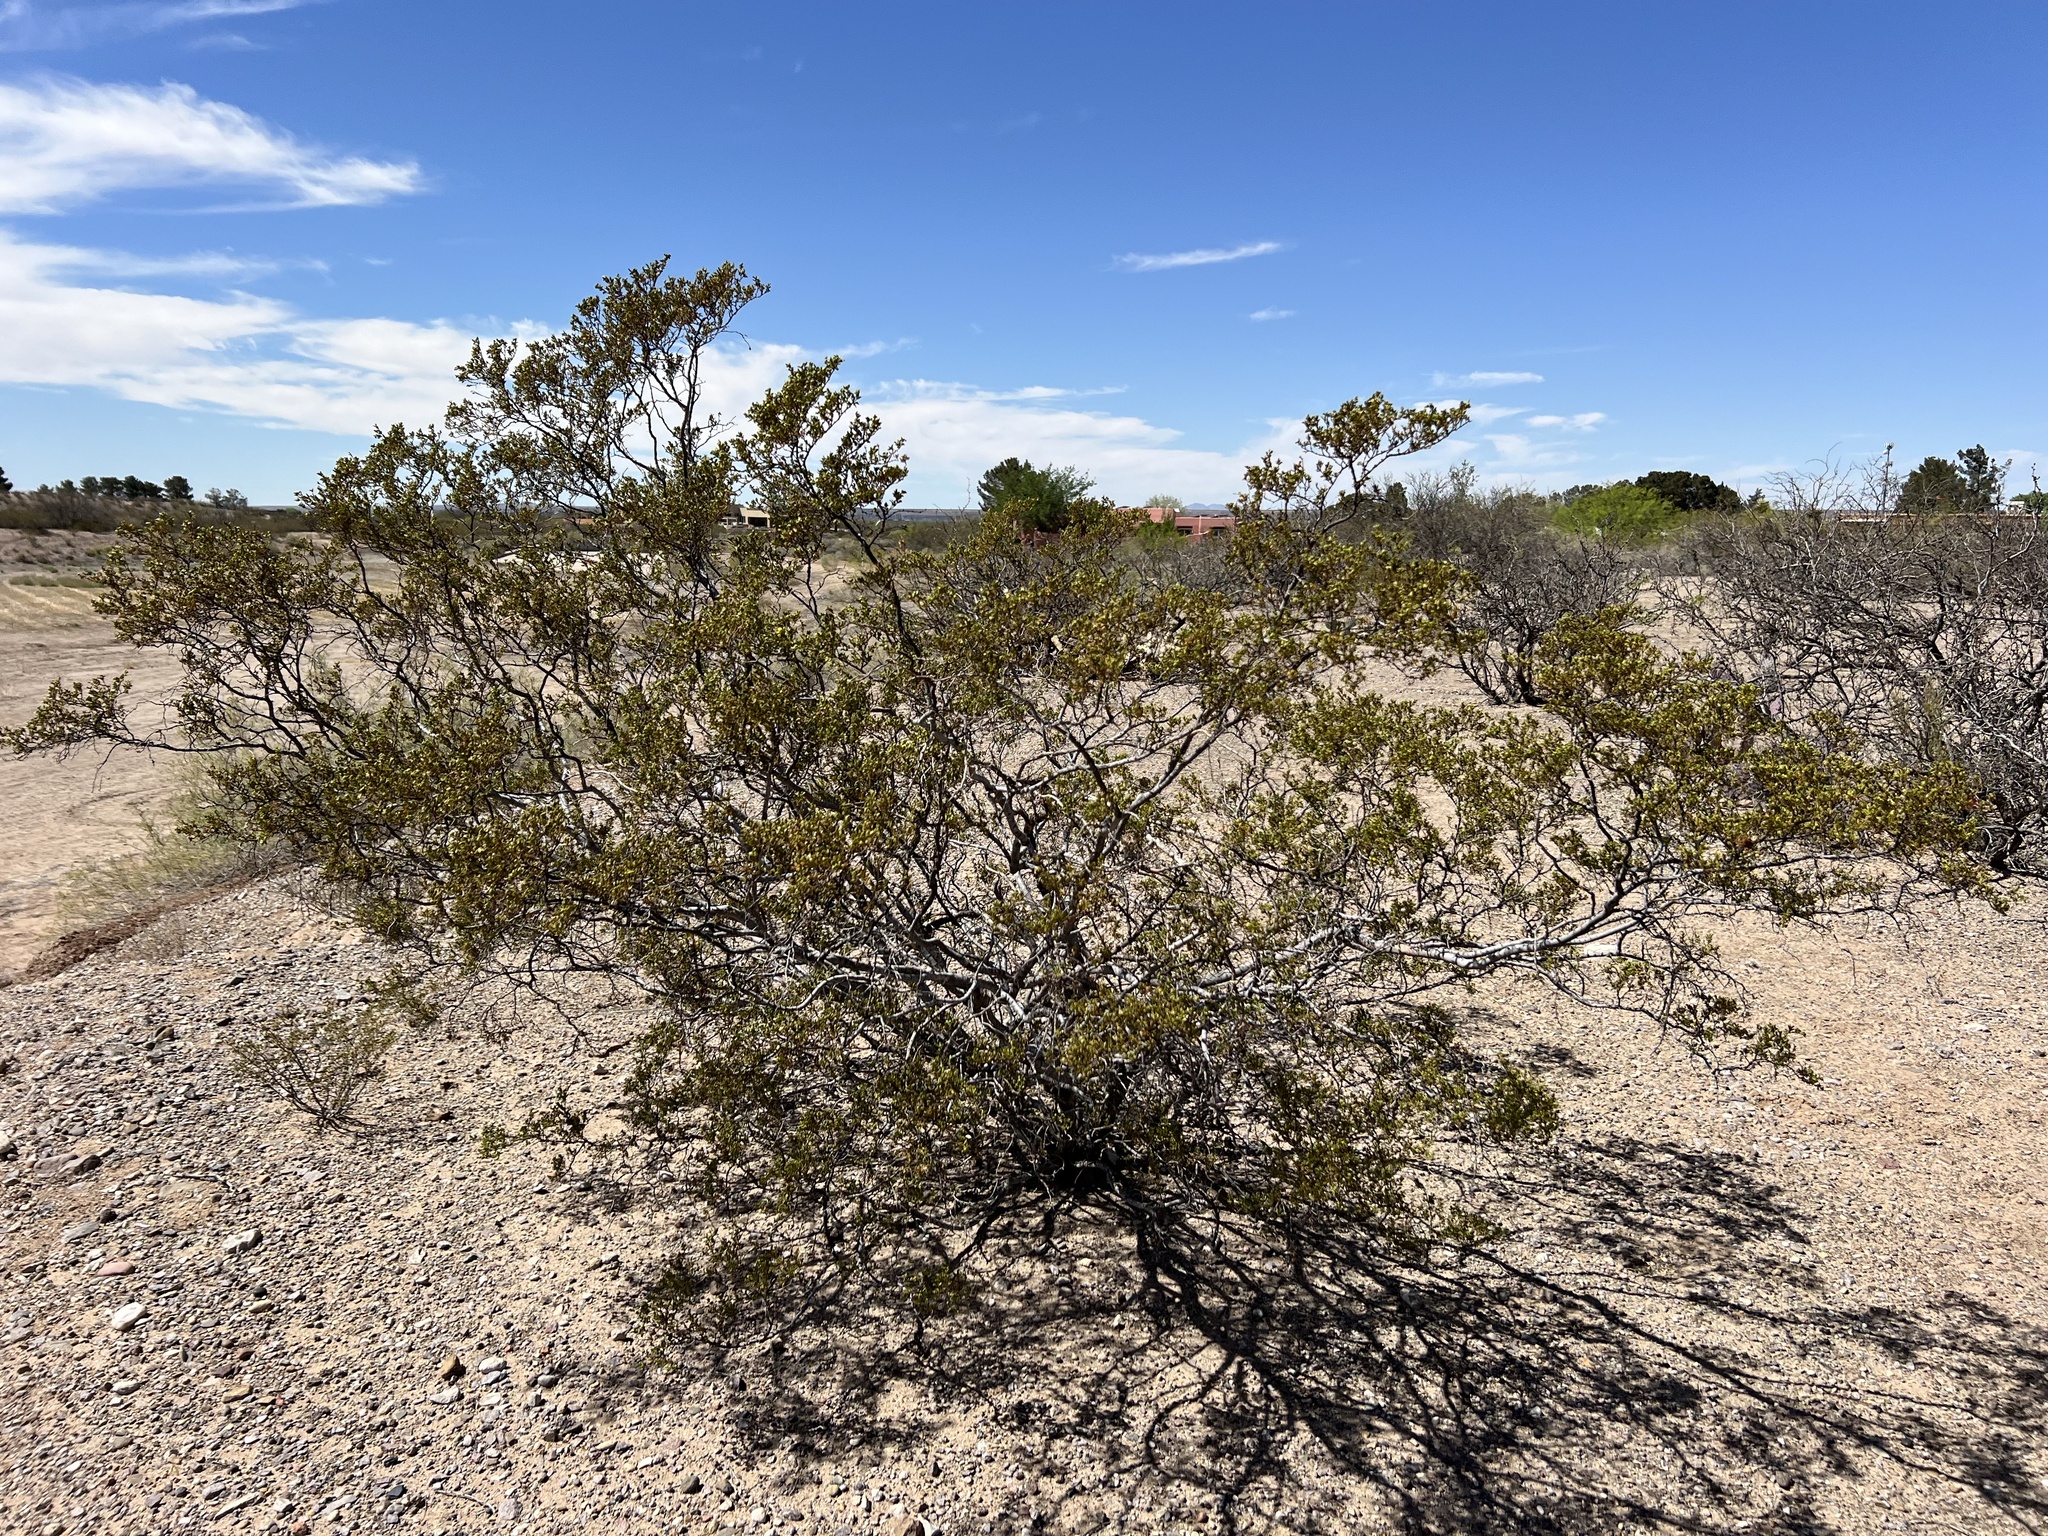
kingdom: Plantae
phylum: Tracheophyta
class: Magnoliopsida
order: Zygophyllales
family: Zygophyllaceae
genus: Larrea
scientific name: Larrea tridentata
